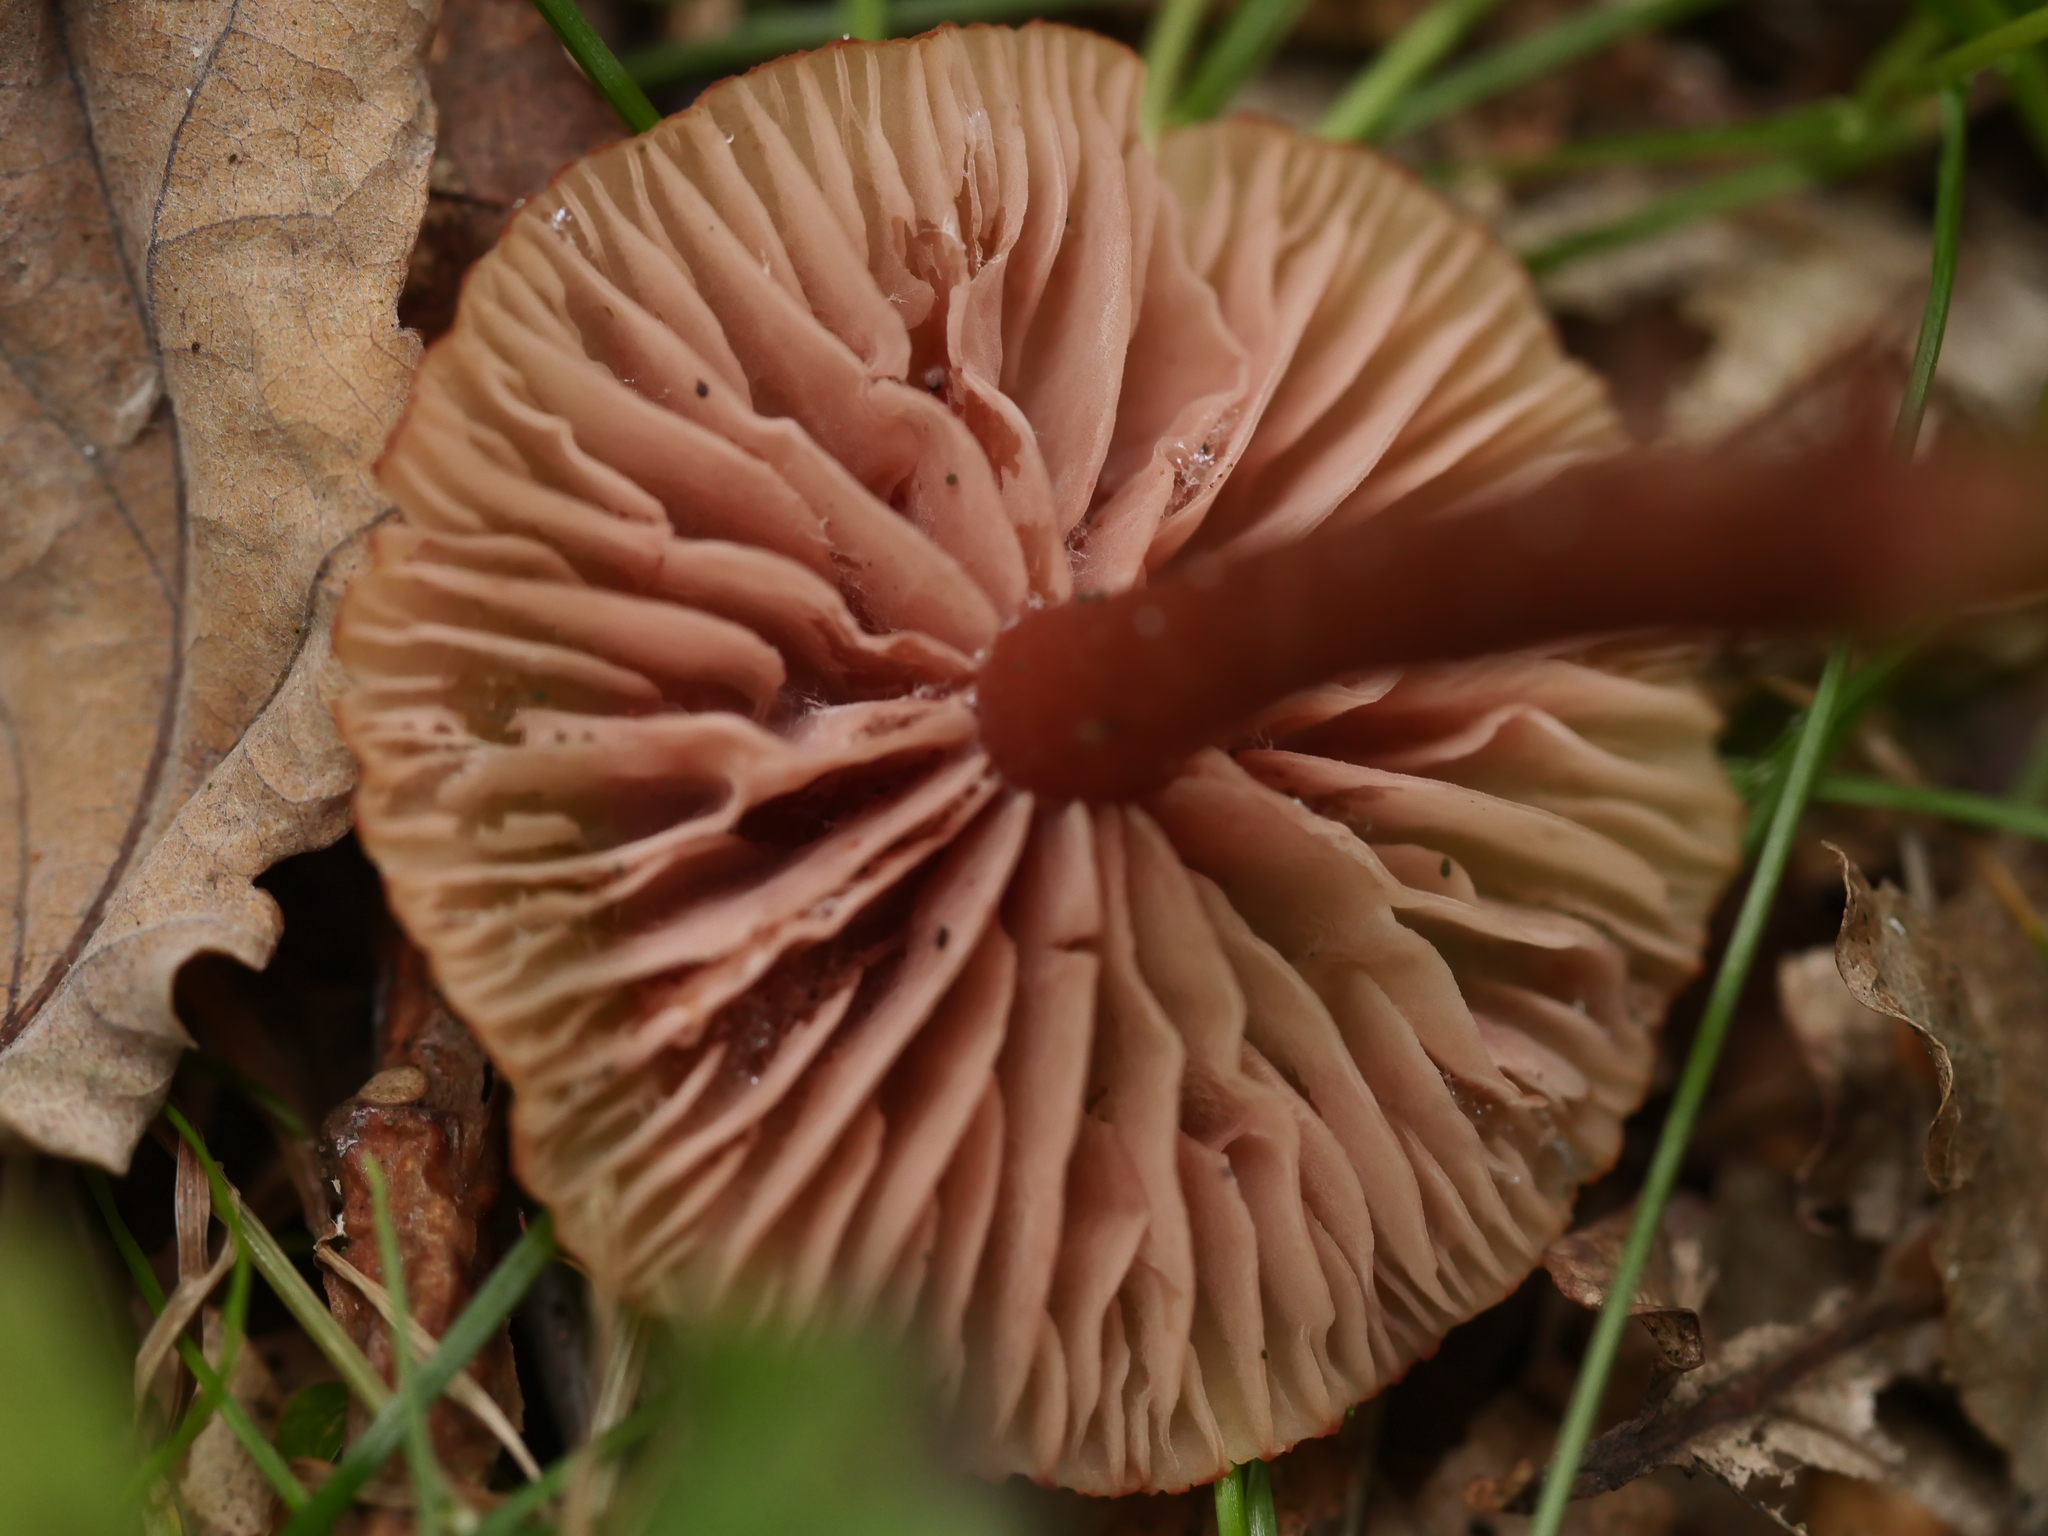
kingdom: Fungi
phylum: Basidiomycota
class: Agaricomycetes
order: Agaricales
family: Hydnangiaceae
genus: Laccaria
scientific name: Laccaria laccata
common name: Deceiver
